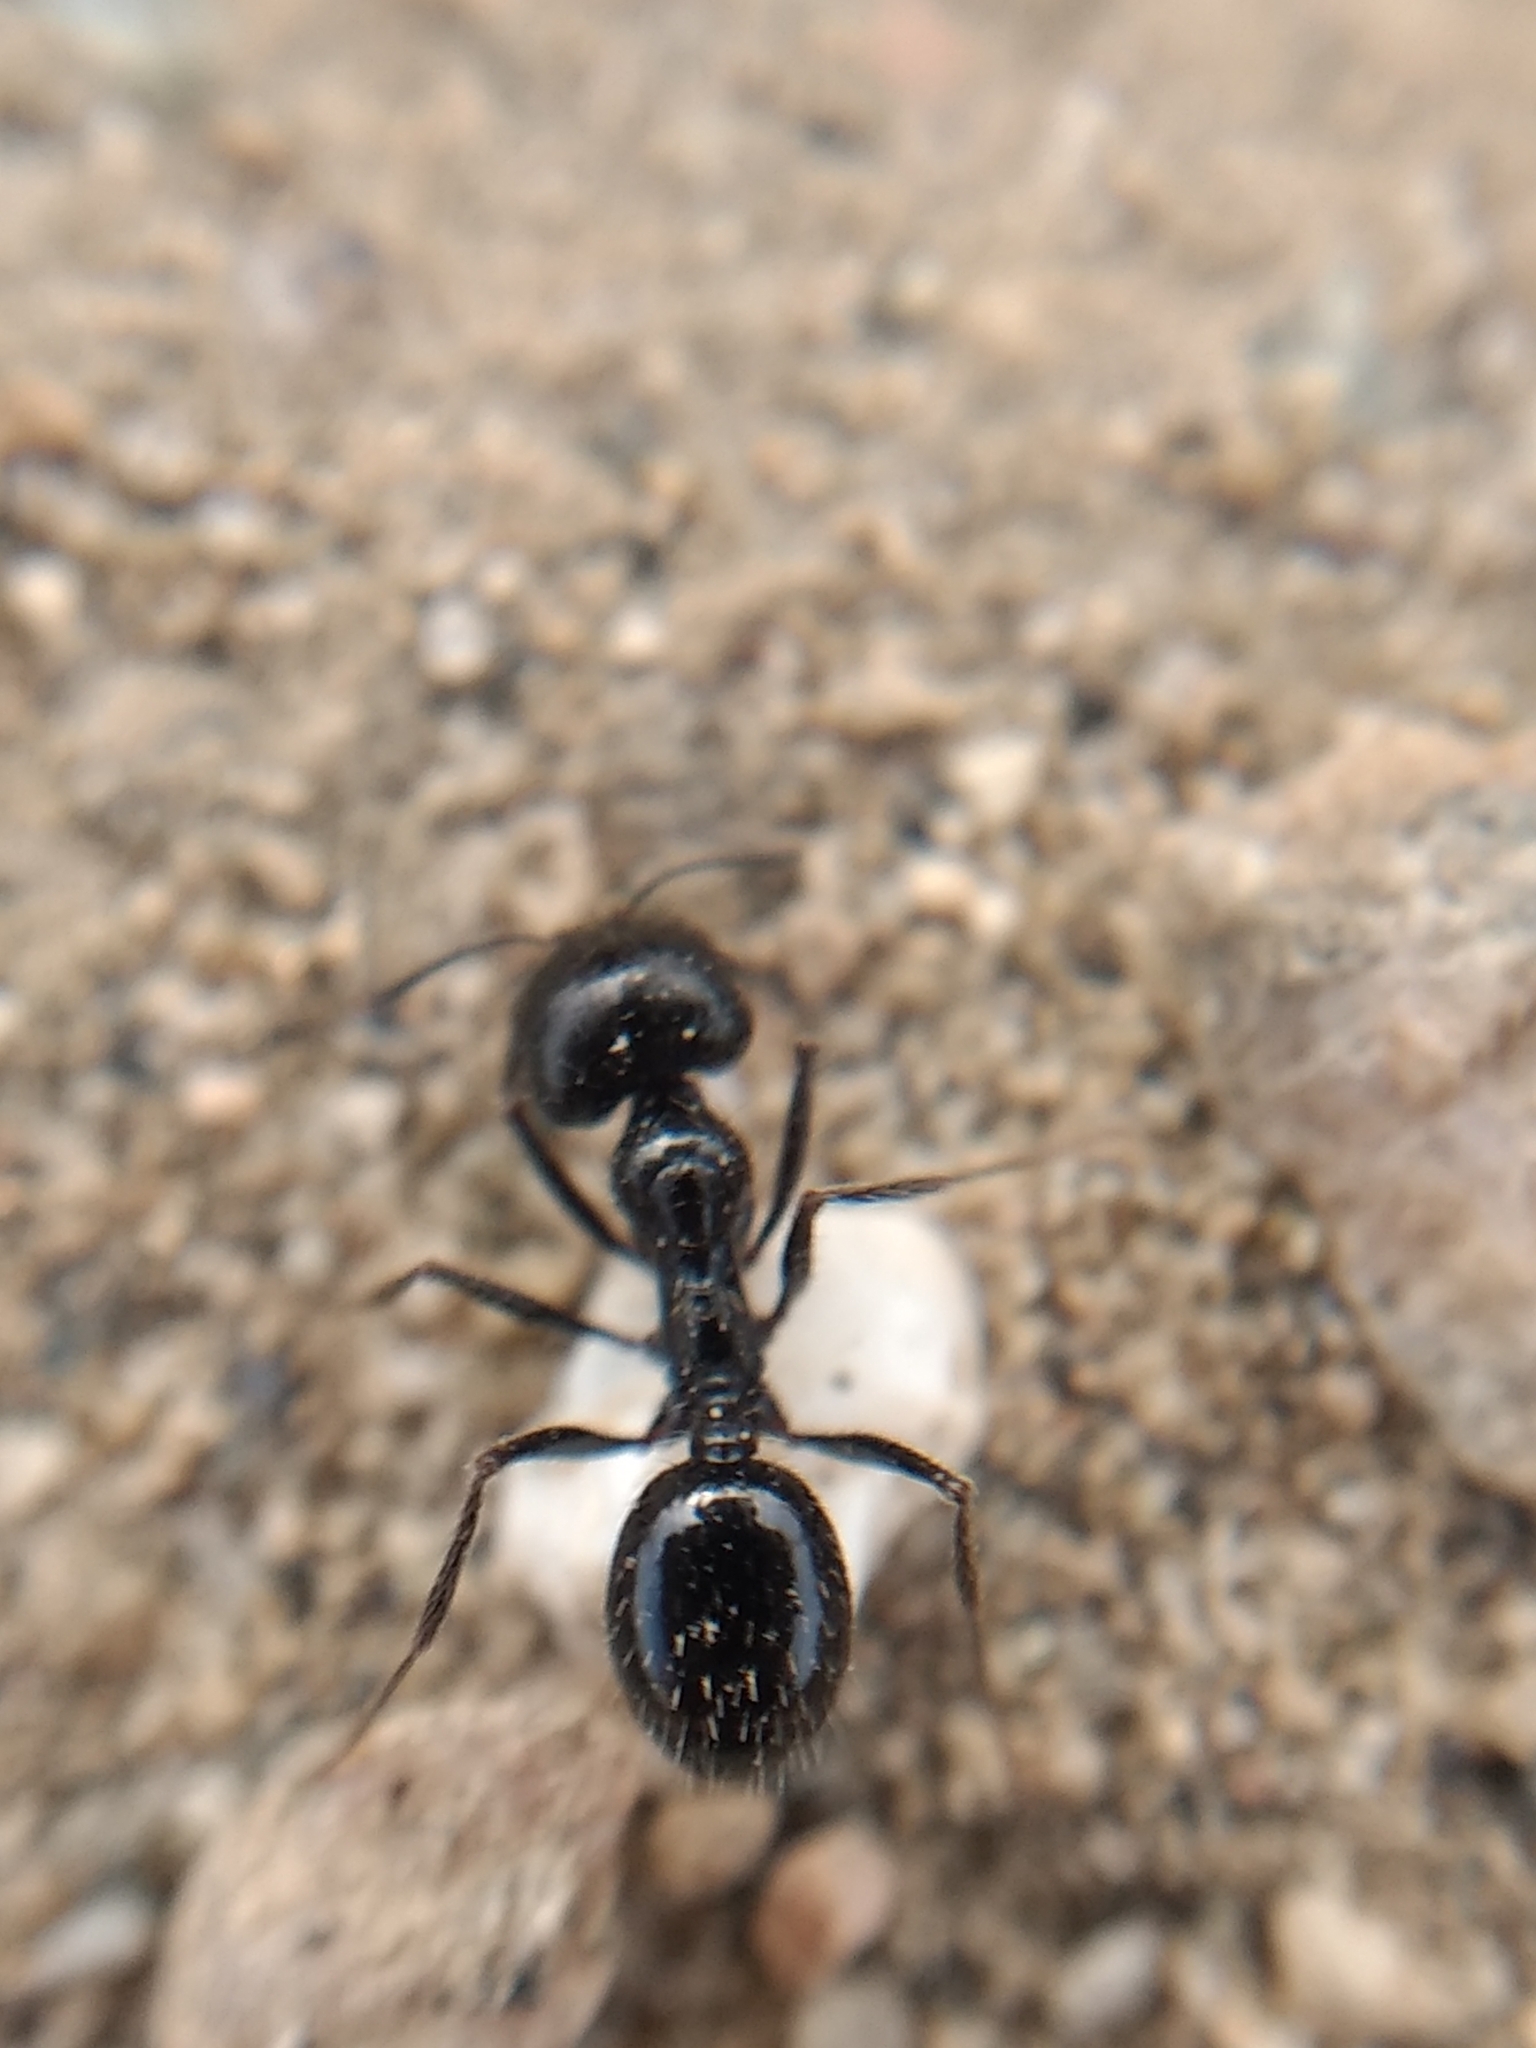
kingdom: Animalia
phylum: Arthropoda
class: Insecta
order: Hymenoptera
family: Formicidae
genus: Messor
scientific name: Messor pergandei
